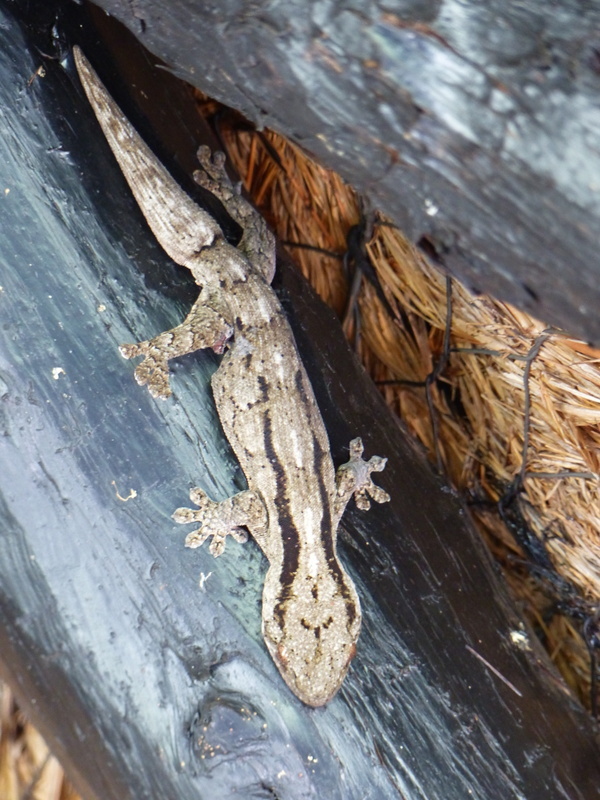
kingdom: Animalia
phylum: Chordata
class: Squamata
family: Gekkonidae
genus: Homopholis
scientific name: Homopholis arnoldi
